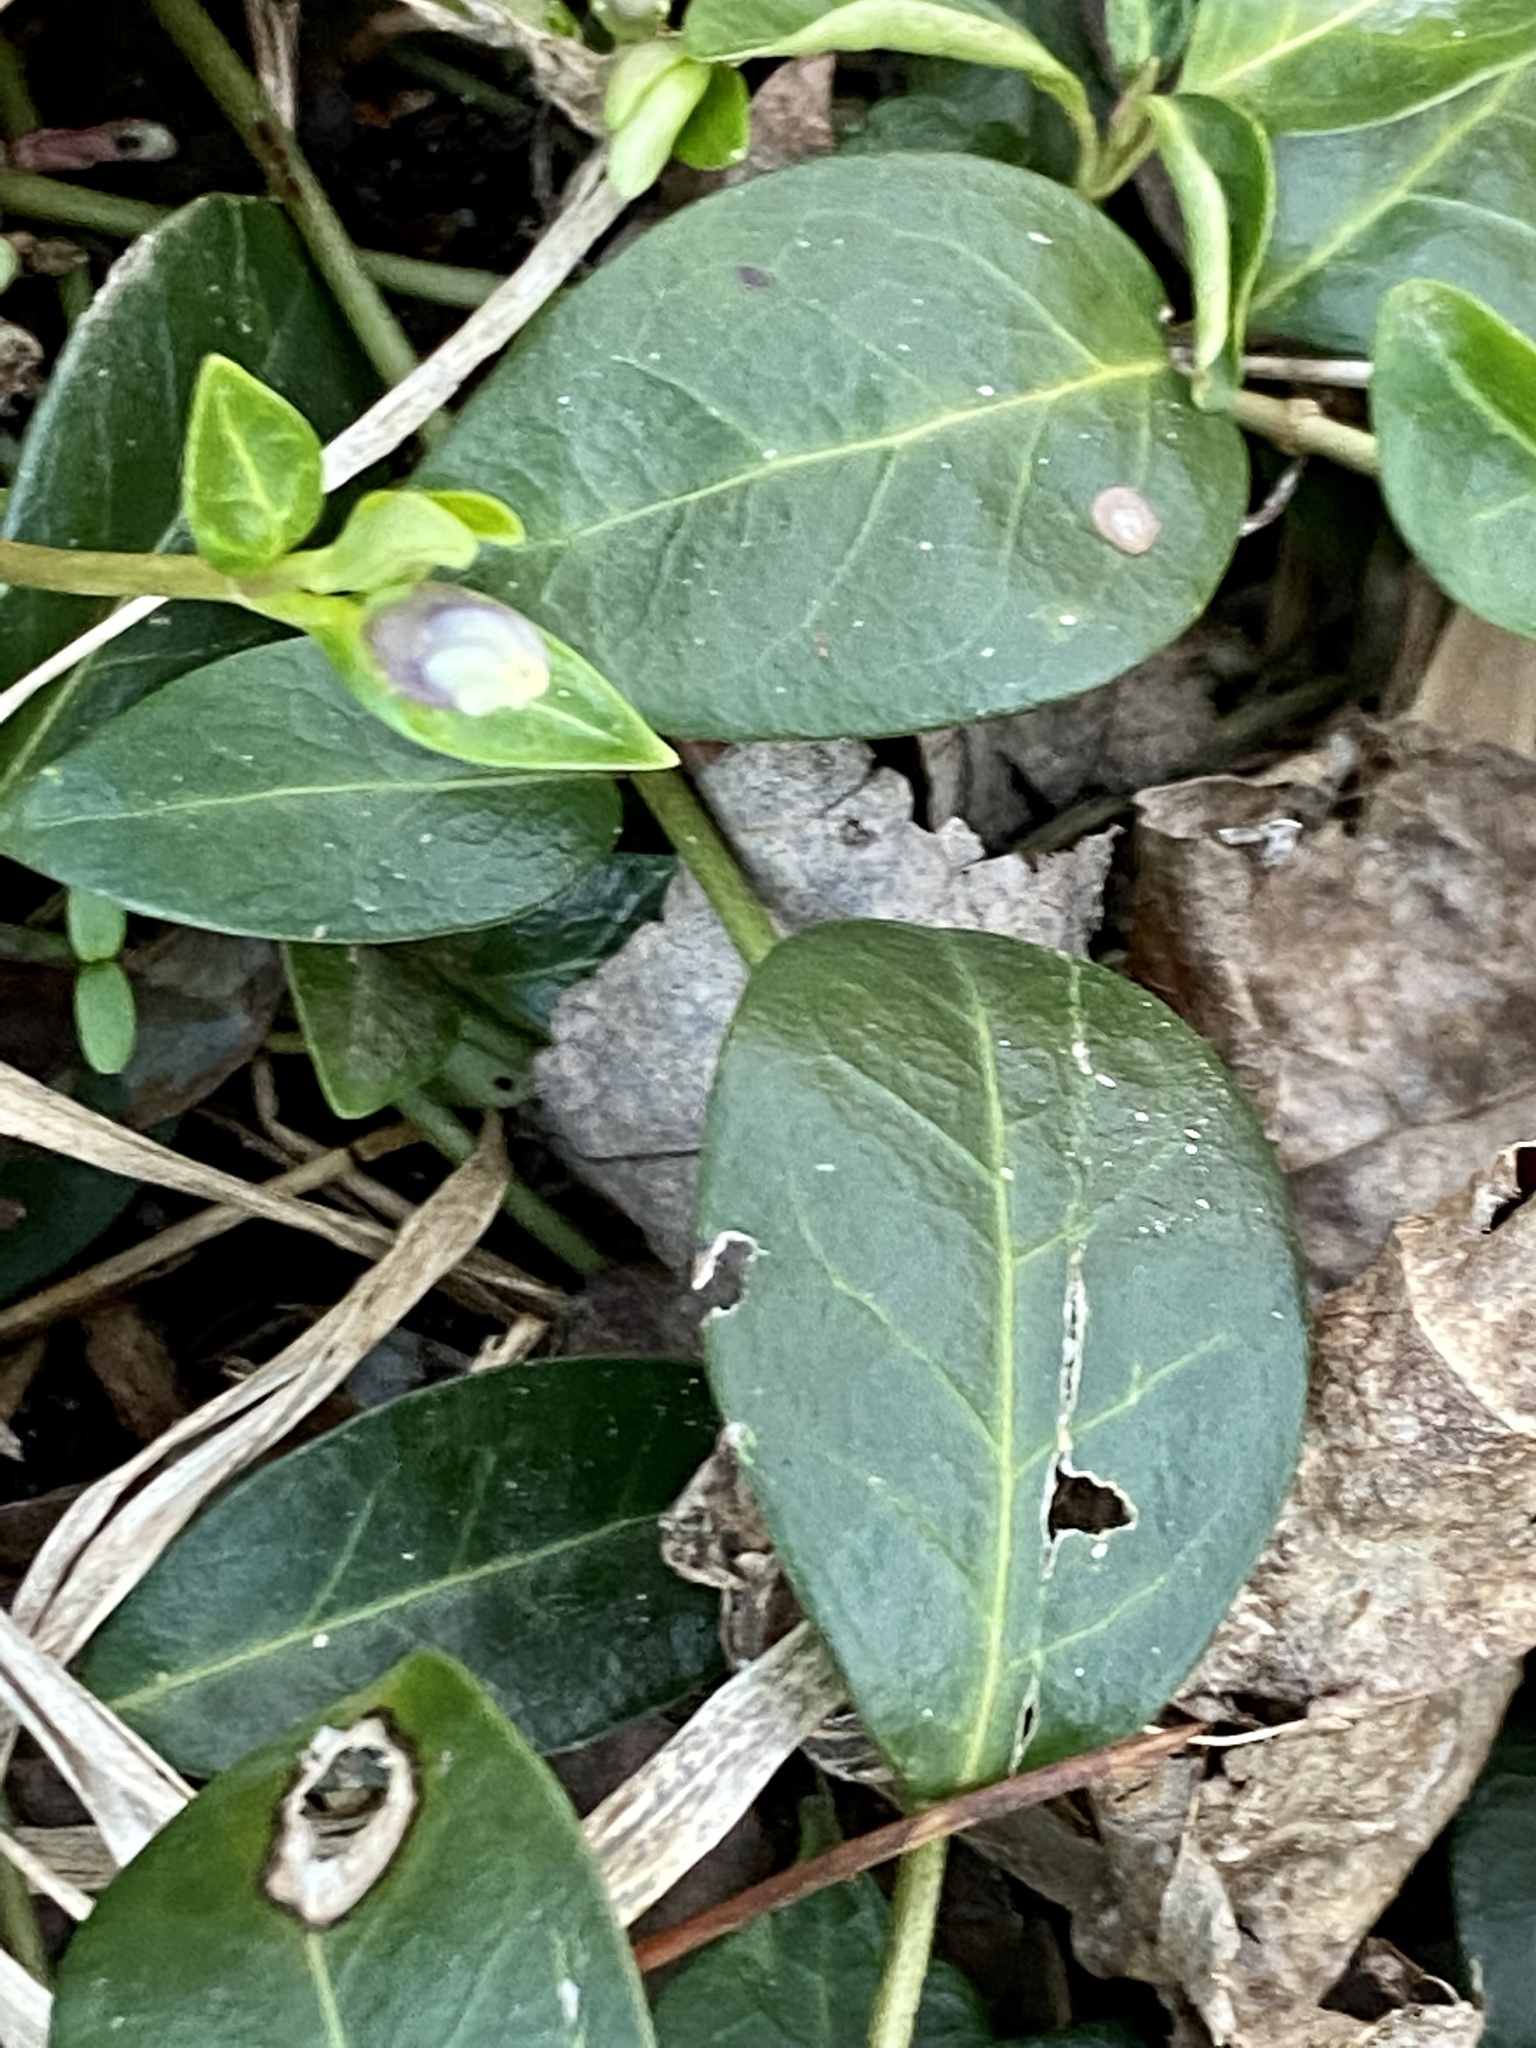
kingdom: Plantae
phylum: Tracheophyta
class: Magnoliopsida
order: Gentianales
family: Apocynaceae
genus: Vinca
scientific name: Vinca minor
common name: Lesser periwinkle
